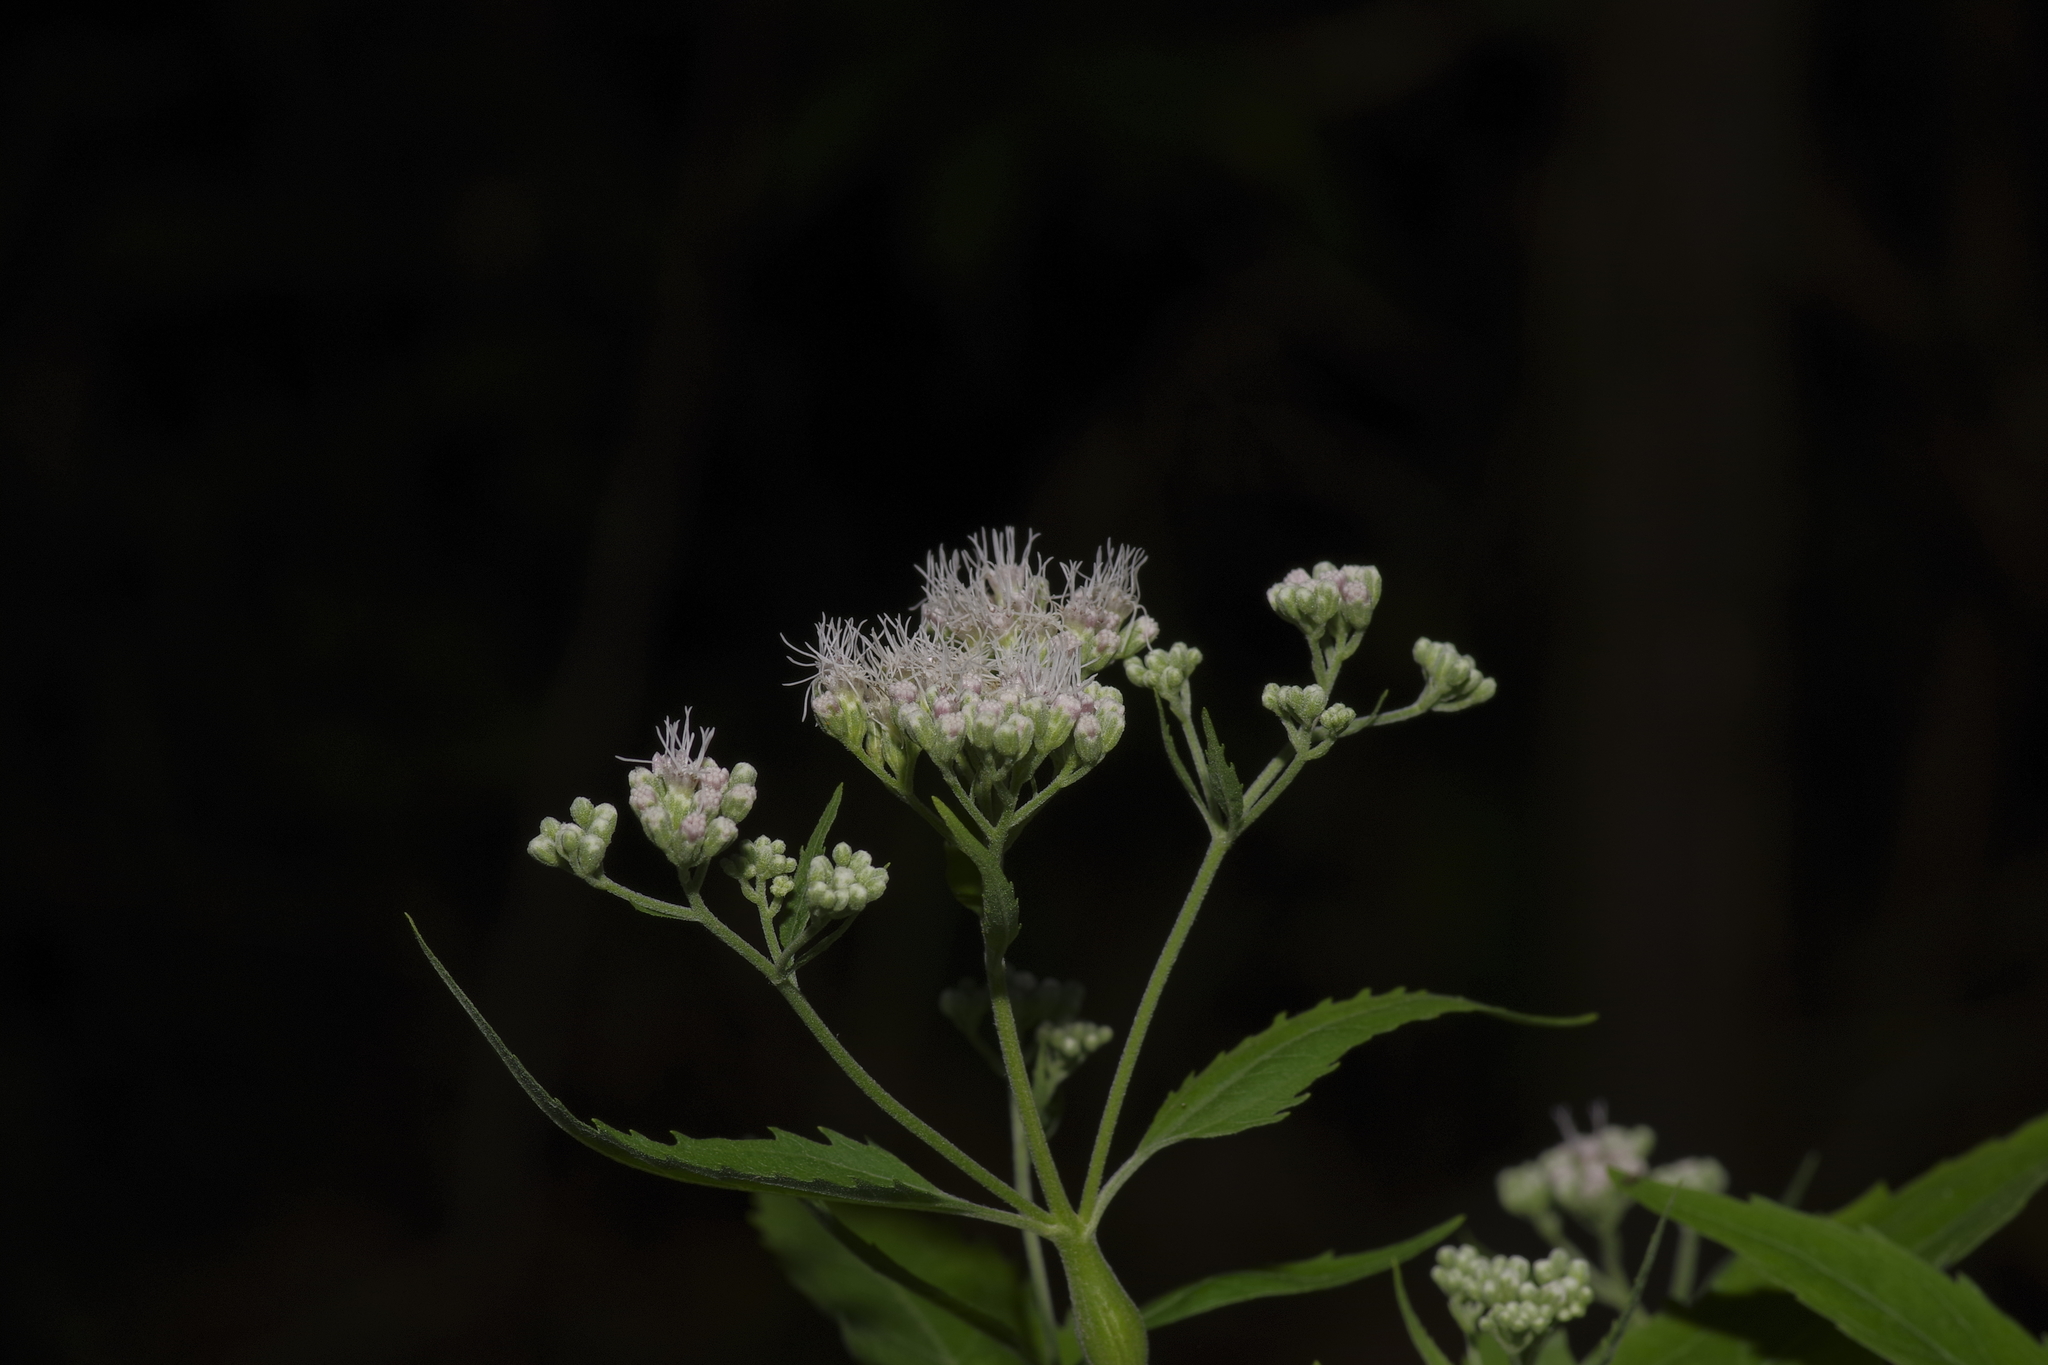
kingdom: Plantae
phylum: Tracheophyta
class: Magnoliopsida
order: Asterales
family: Asteraceae
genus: Eupatorium
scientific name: Eupatorium serotinum
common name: Late boneset
